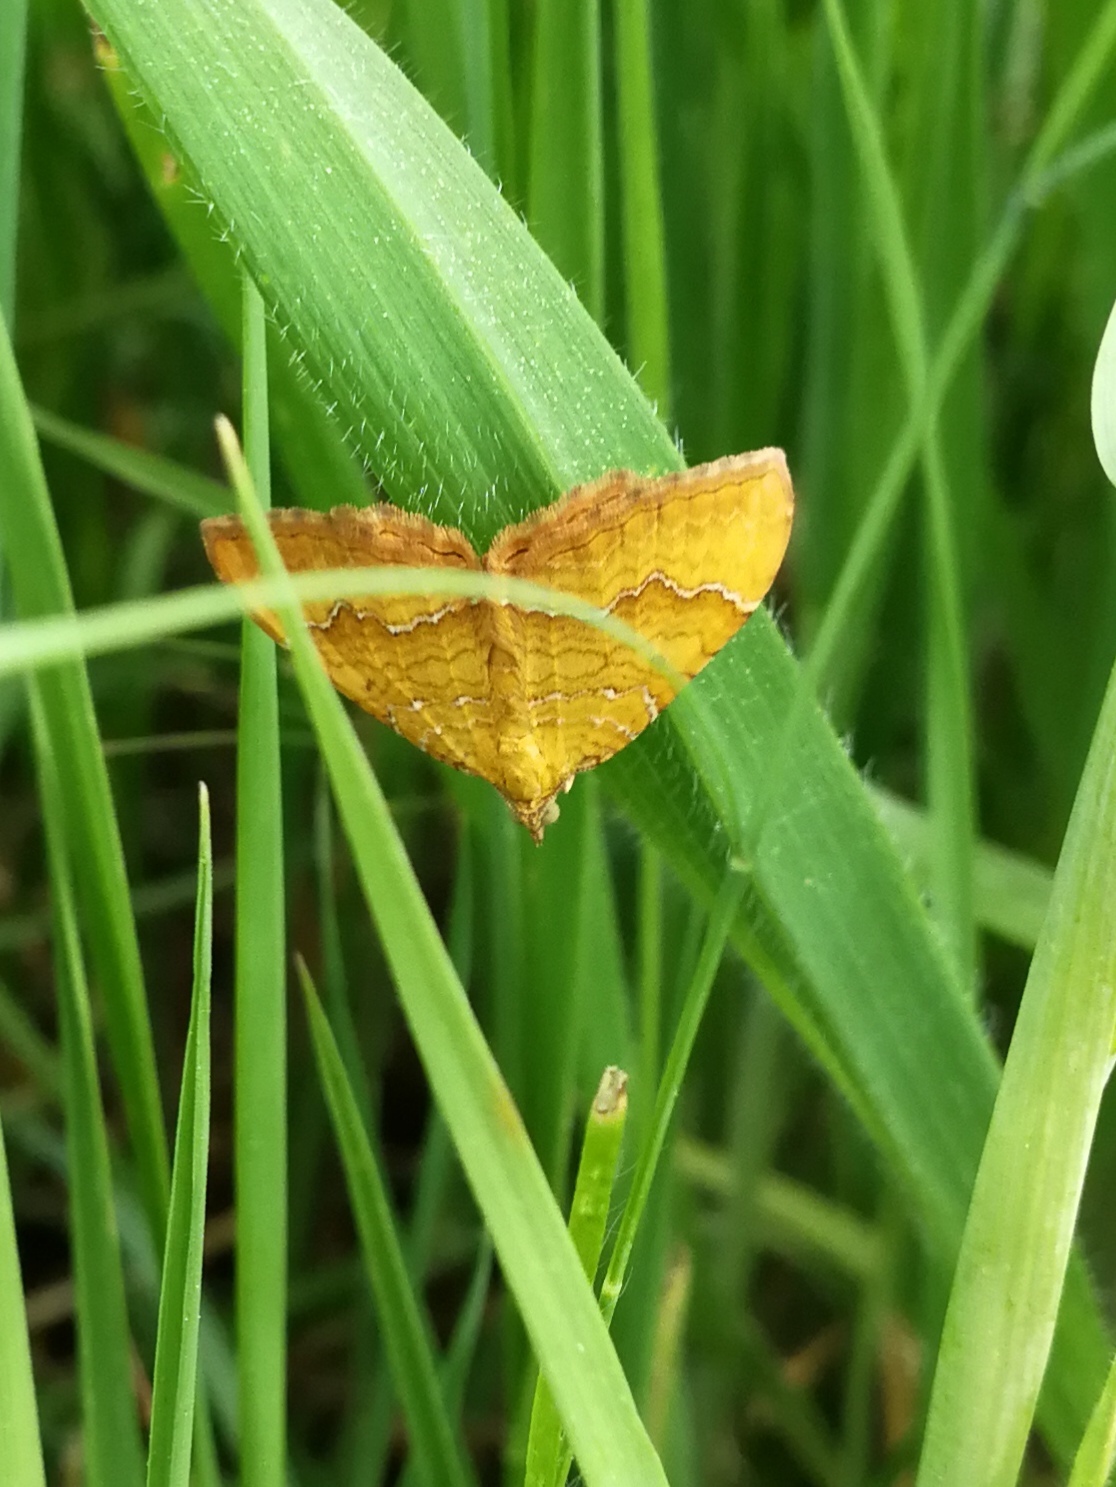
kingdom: Animalia
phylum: Arthropoda
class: Insecta
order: Lepidoptera
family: Geometridae
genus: Camptogramma
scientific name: Camptogramma bilineata
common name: Yellow shell
